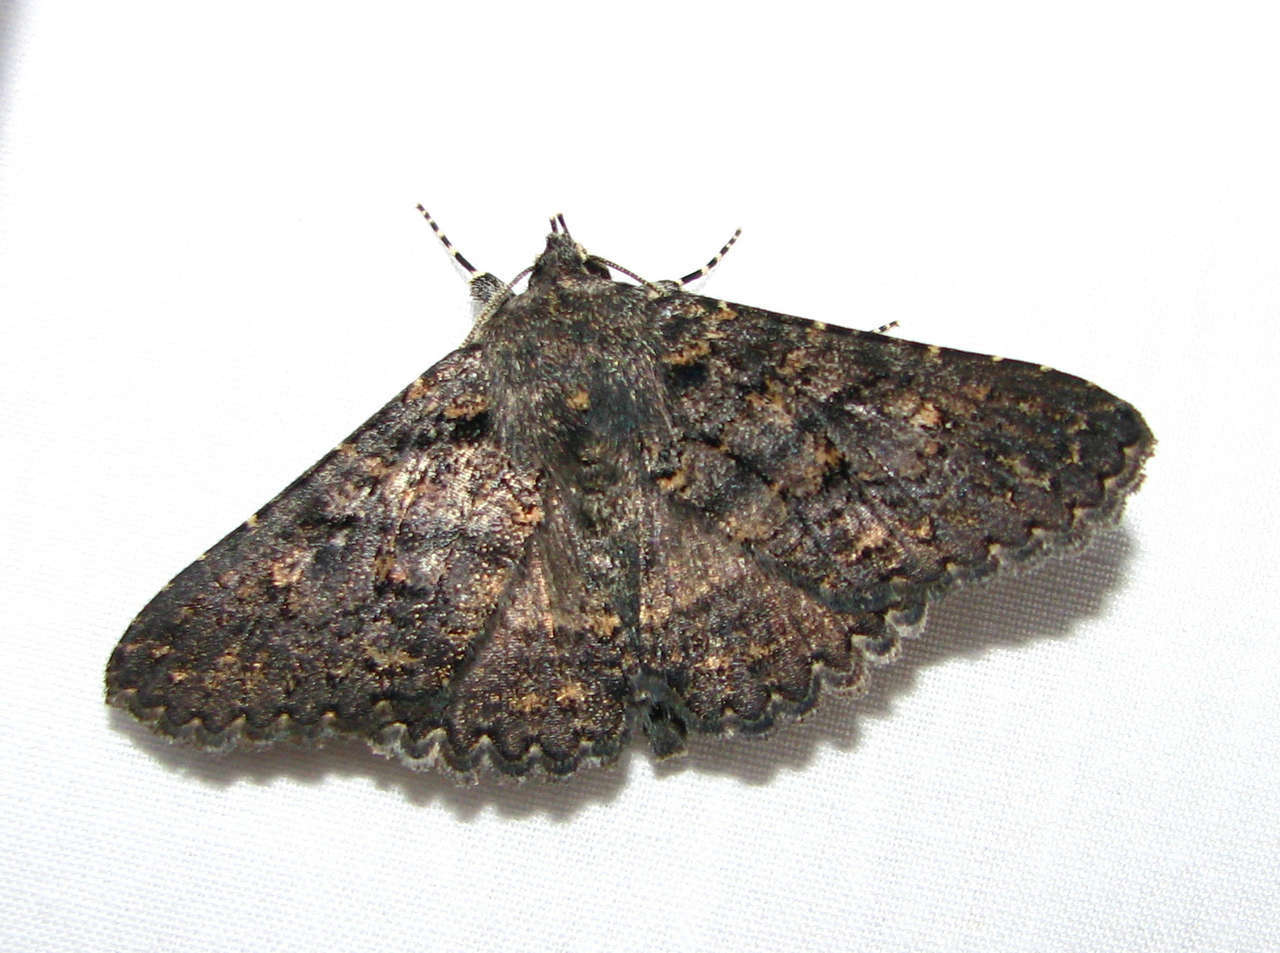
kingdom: Animalia
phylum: Arthropoda
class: Insecta
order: Lepidoptera
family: Erebidae
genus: Praxis
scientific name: Praxis
